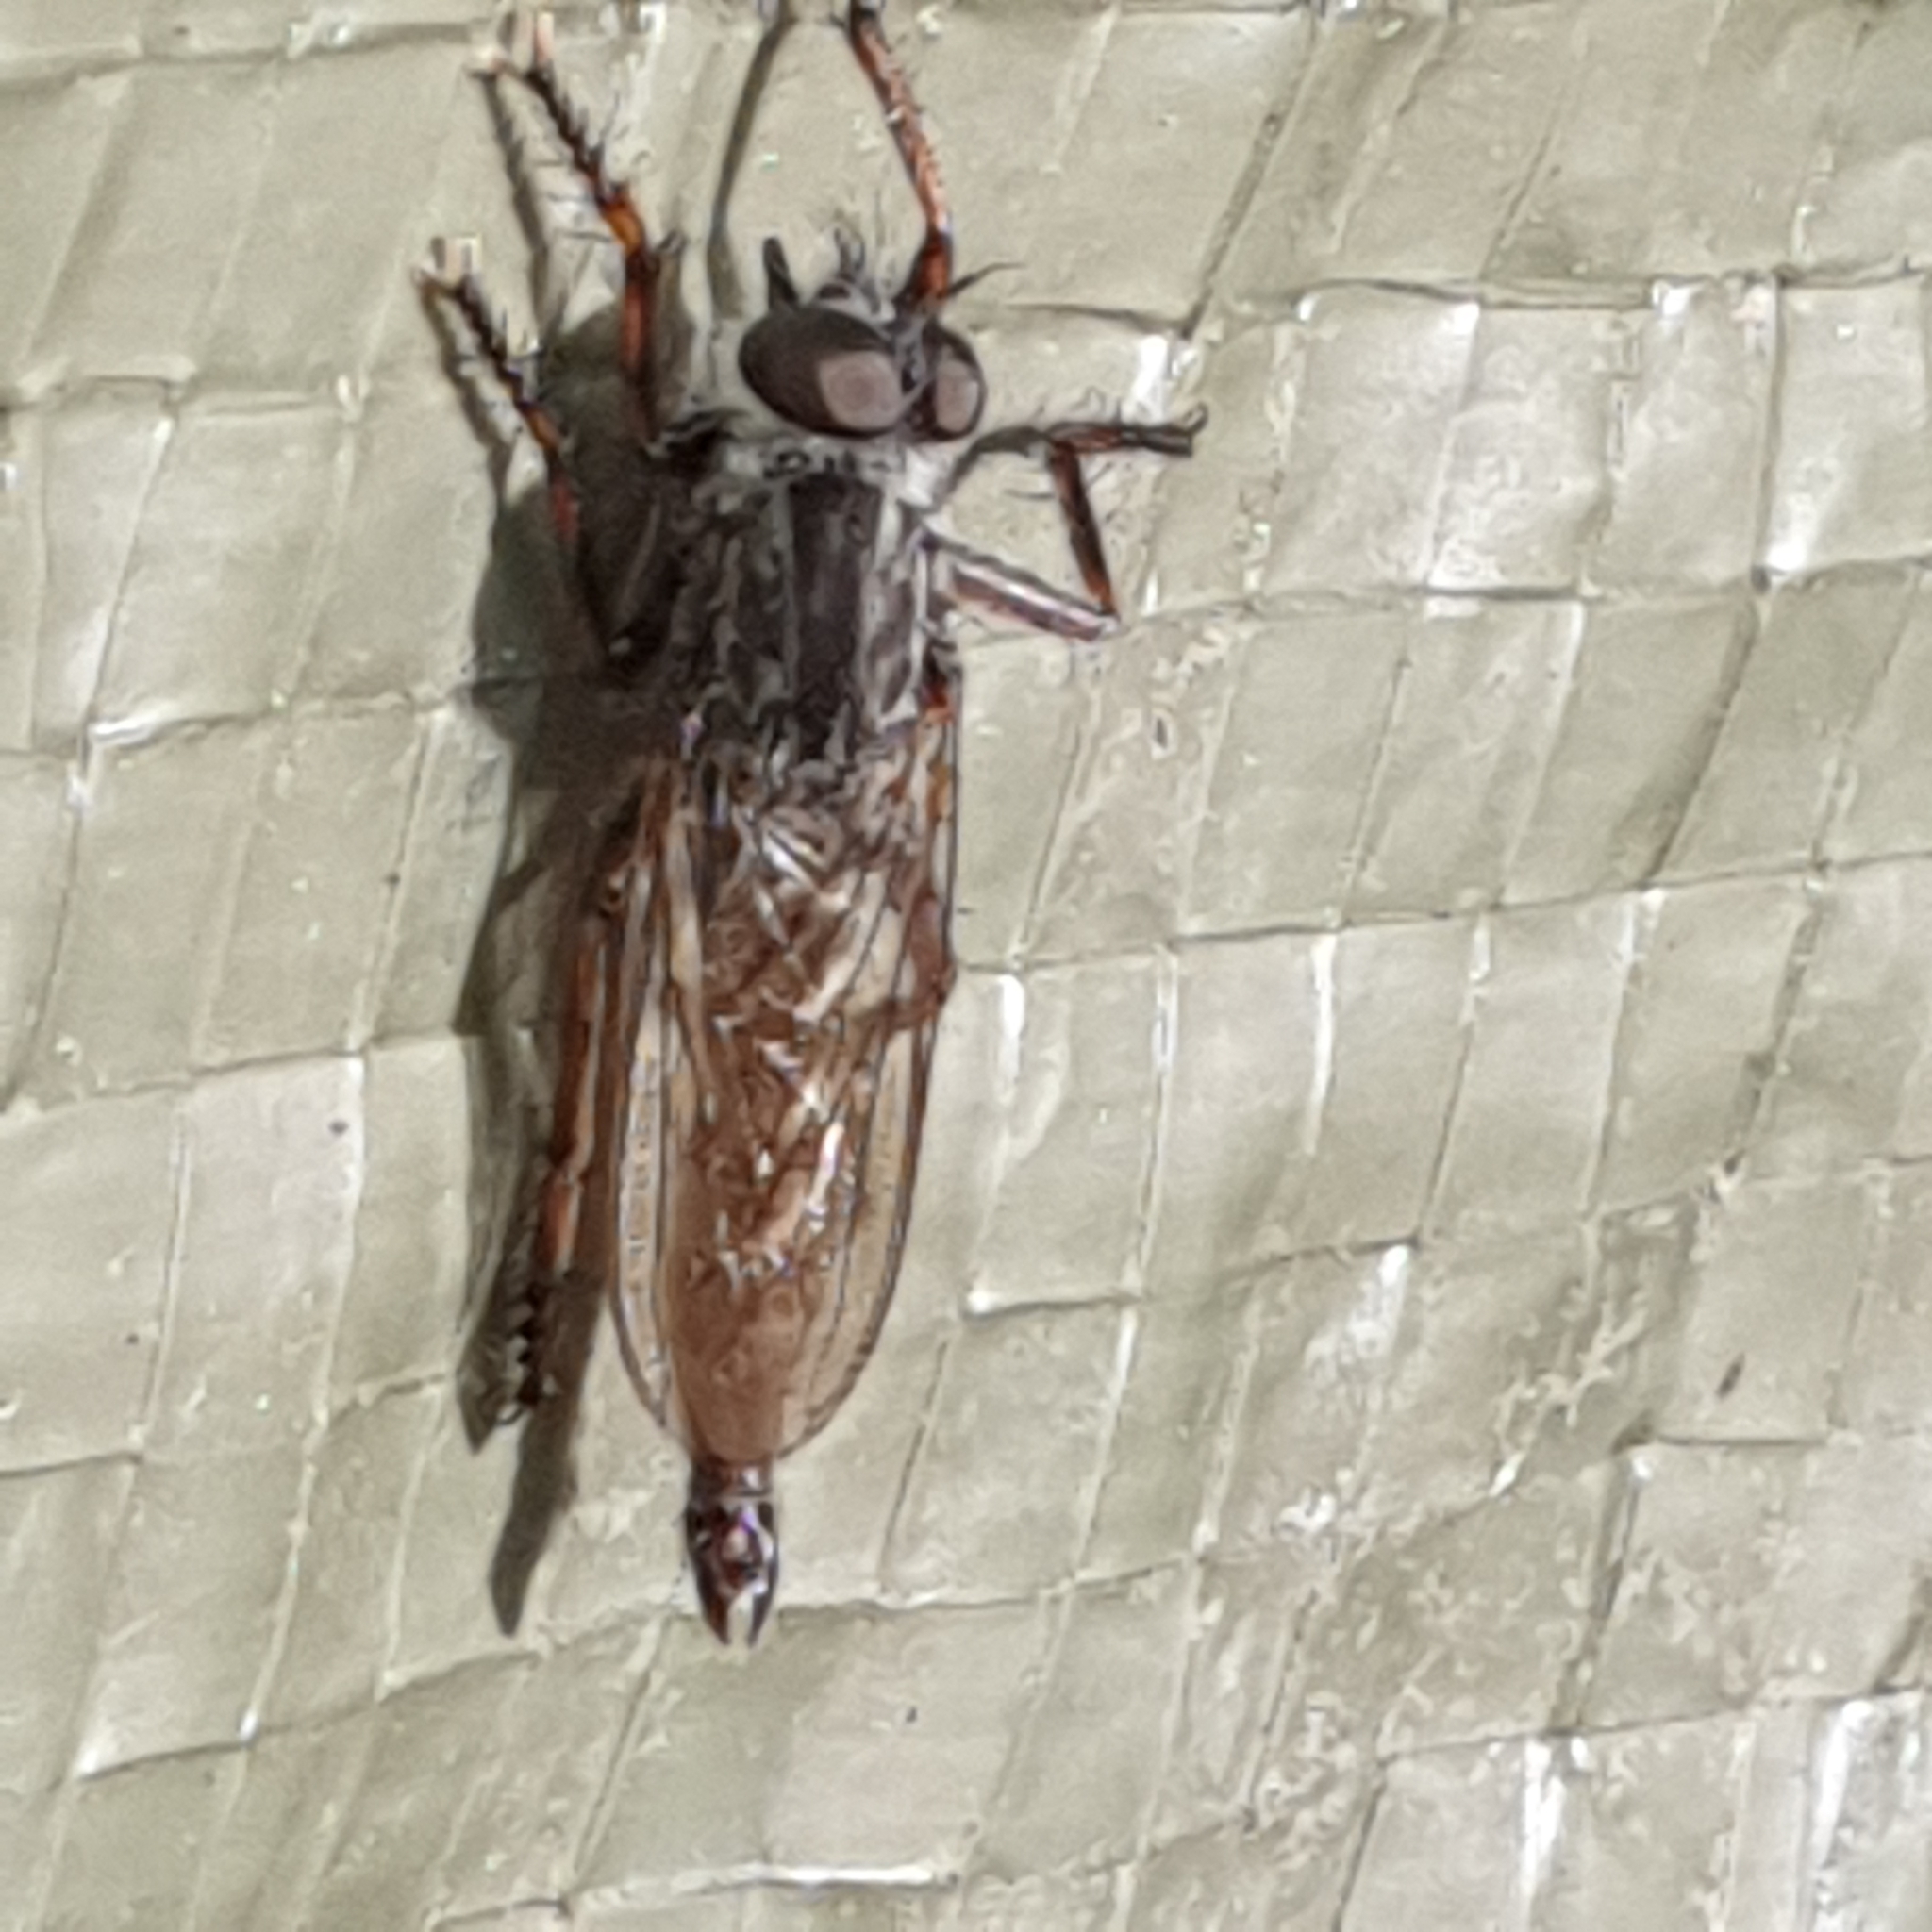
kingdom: Animalia
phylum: Arthropoda
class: Insecta
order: Diptera
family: Asilidae
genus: Machimus
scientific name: Machimus atricapillus
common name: Kite-tailed robberfly
